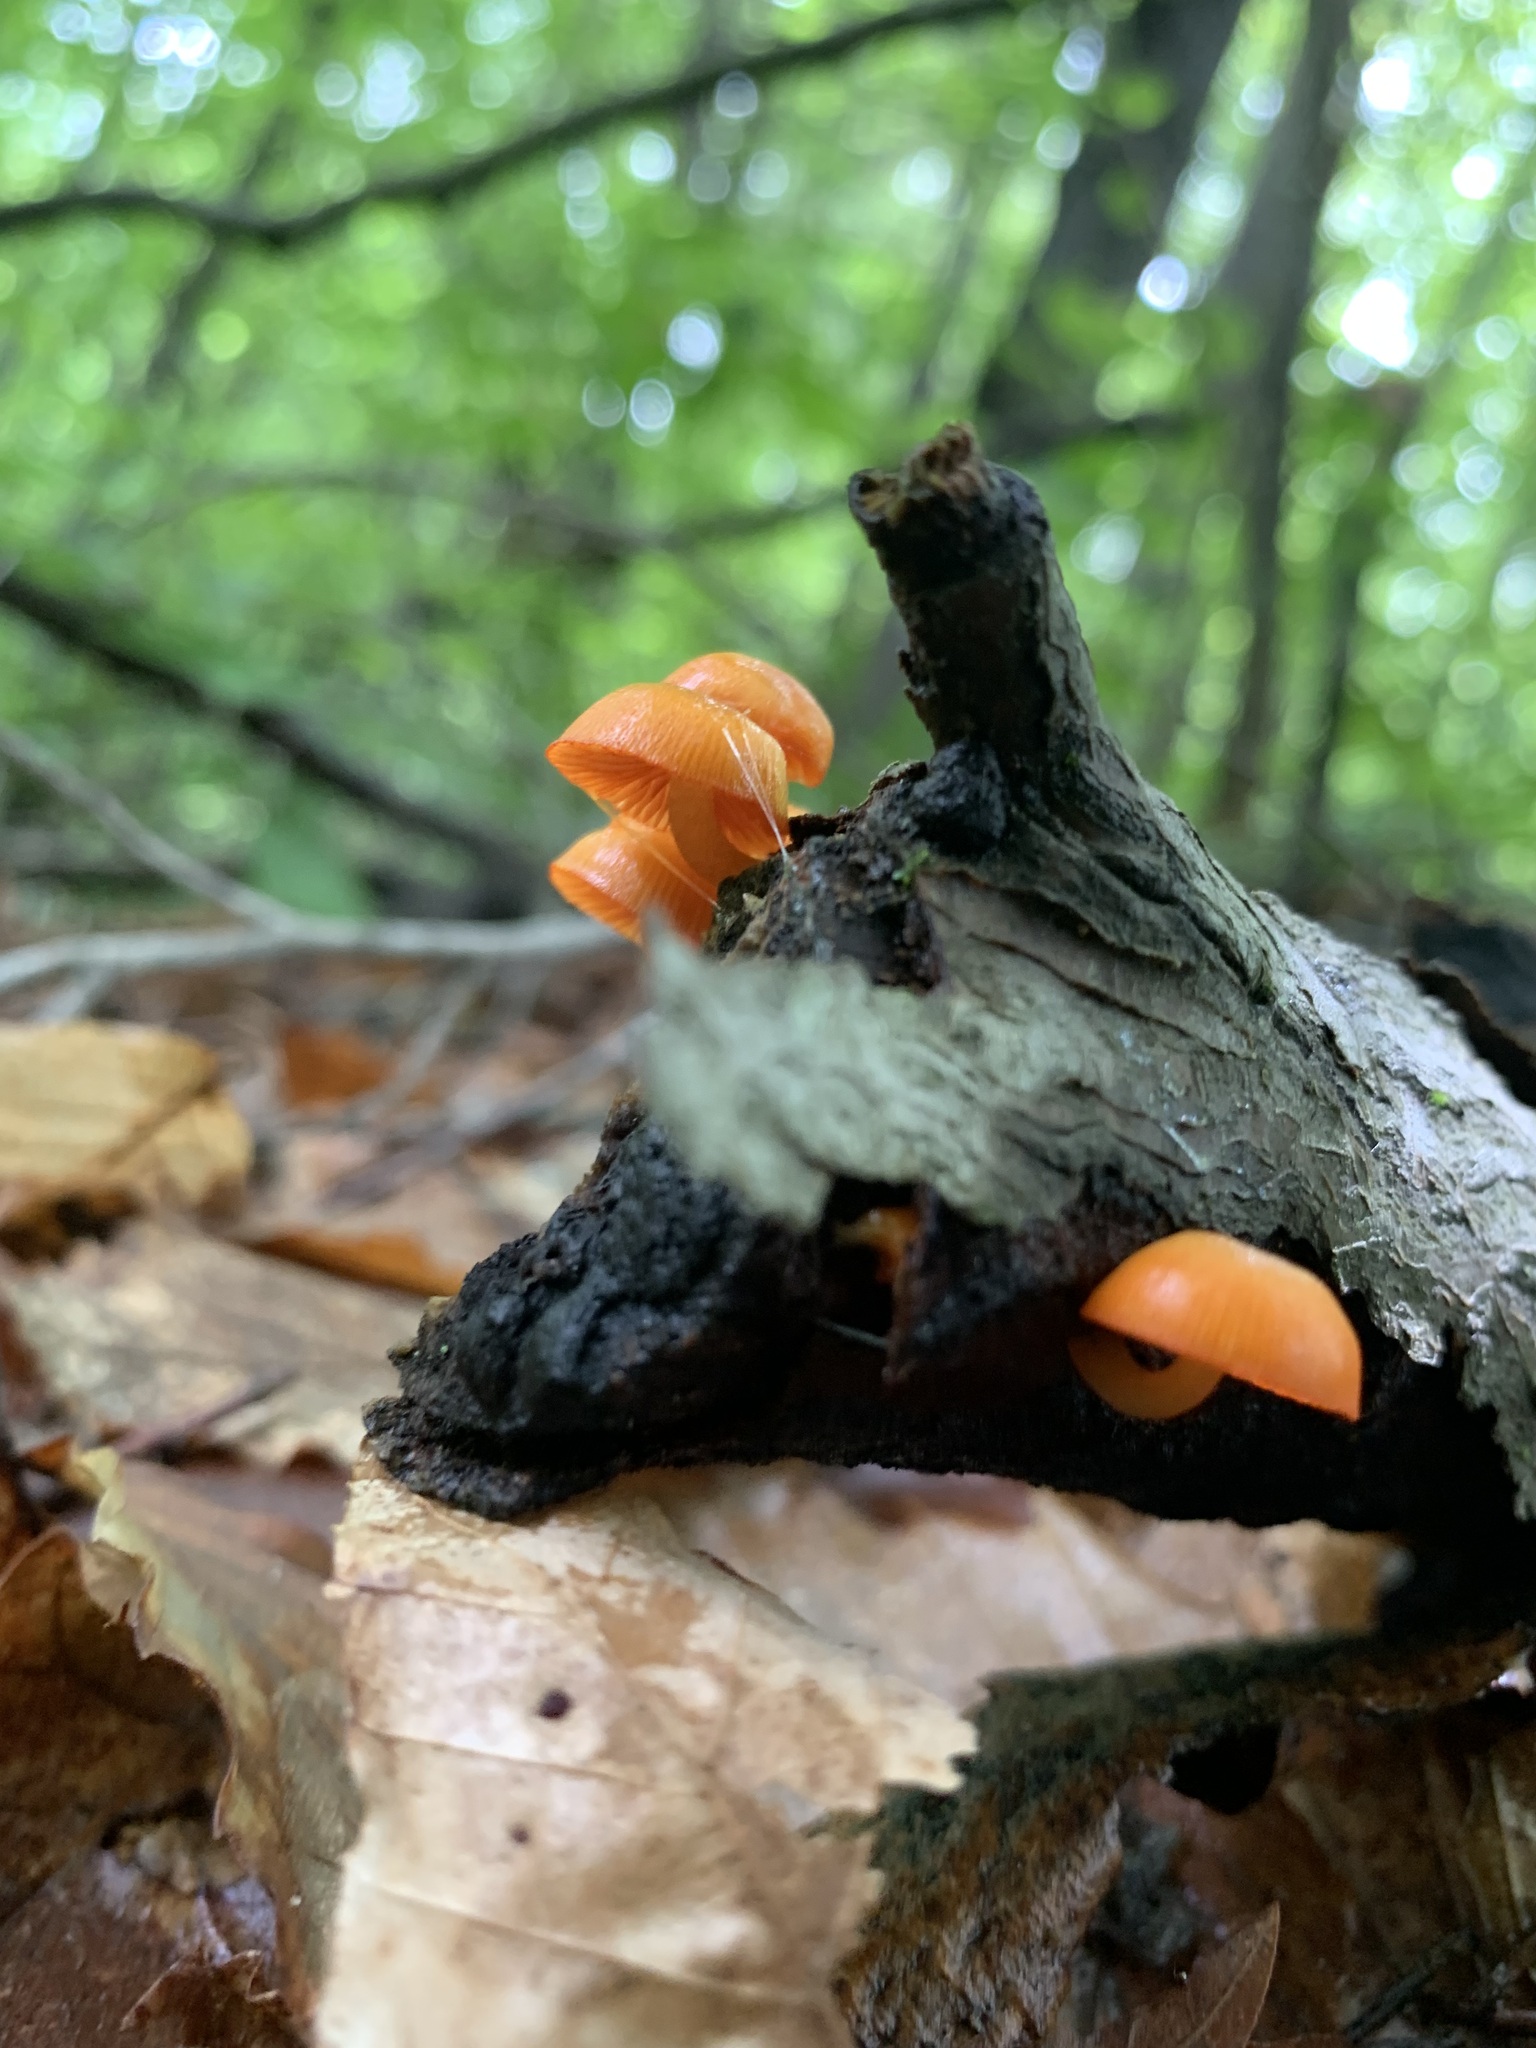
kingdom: Fungi
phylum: Basidiomycota
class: Agaricomycetes
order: Agaricales
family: Mycenaceae
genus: Mycena
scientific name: Mycena leaiana
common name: Orange mycena
